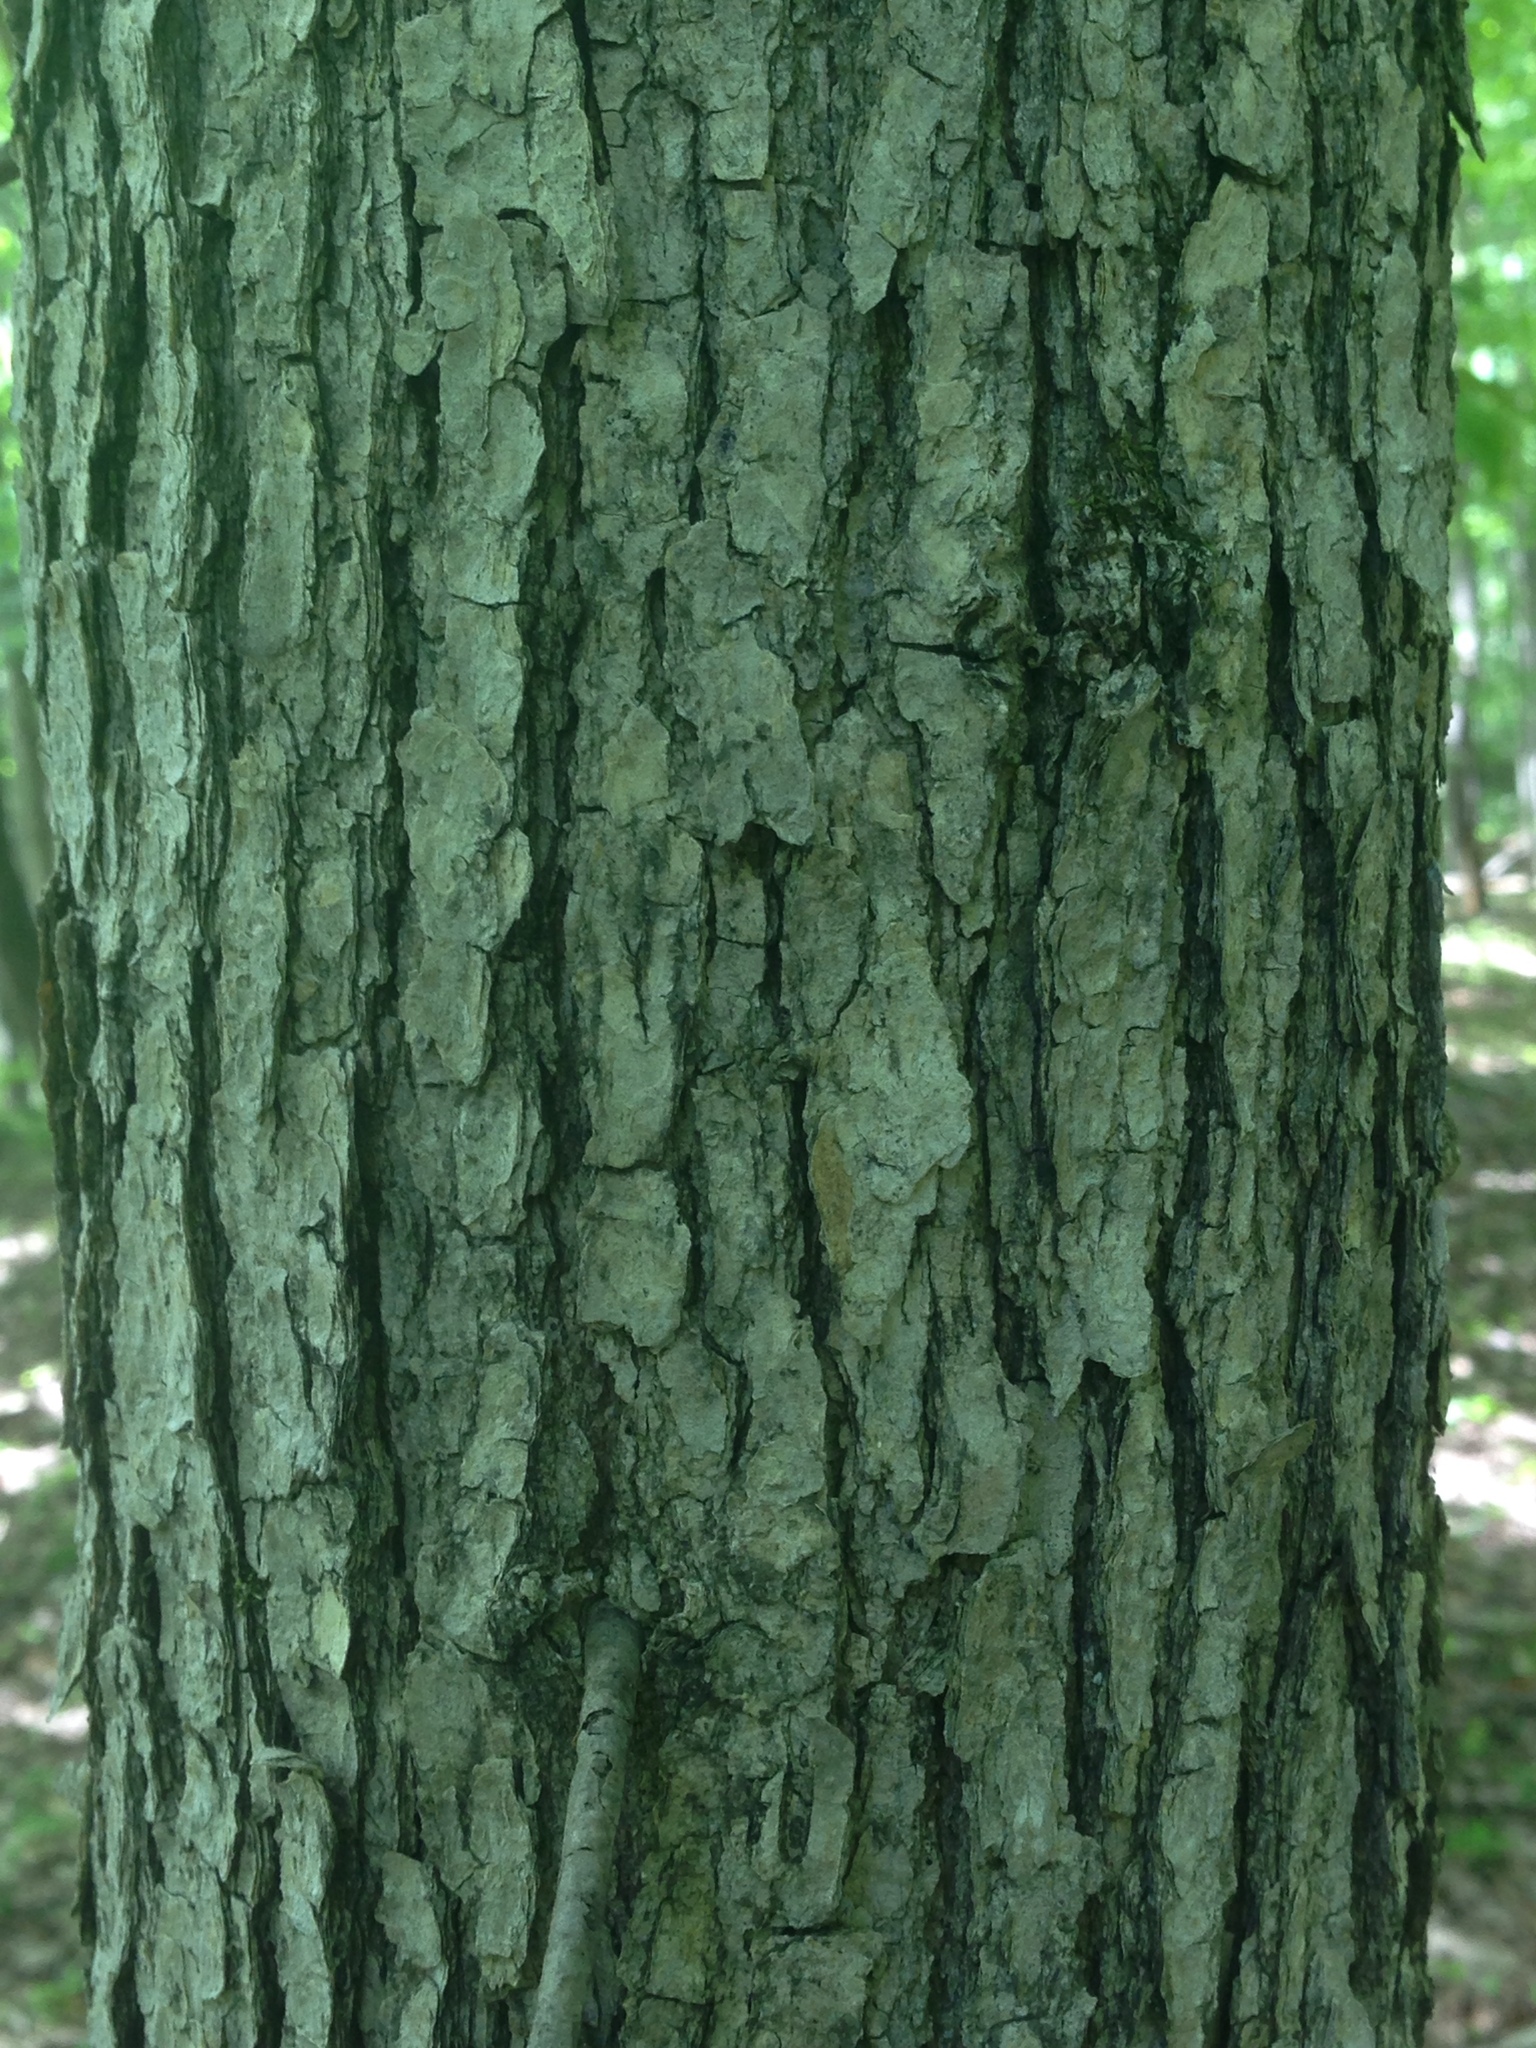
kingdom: Plantae
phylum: Tracheophyta
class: Magnoliopsida
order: Cornales
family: Nyssaceae
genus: Nyssa
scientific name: Nyssa sylvatica
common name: Black tupelo
